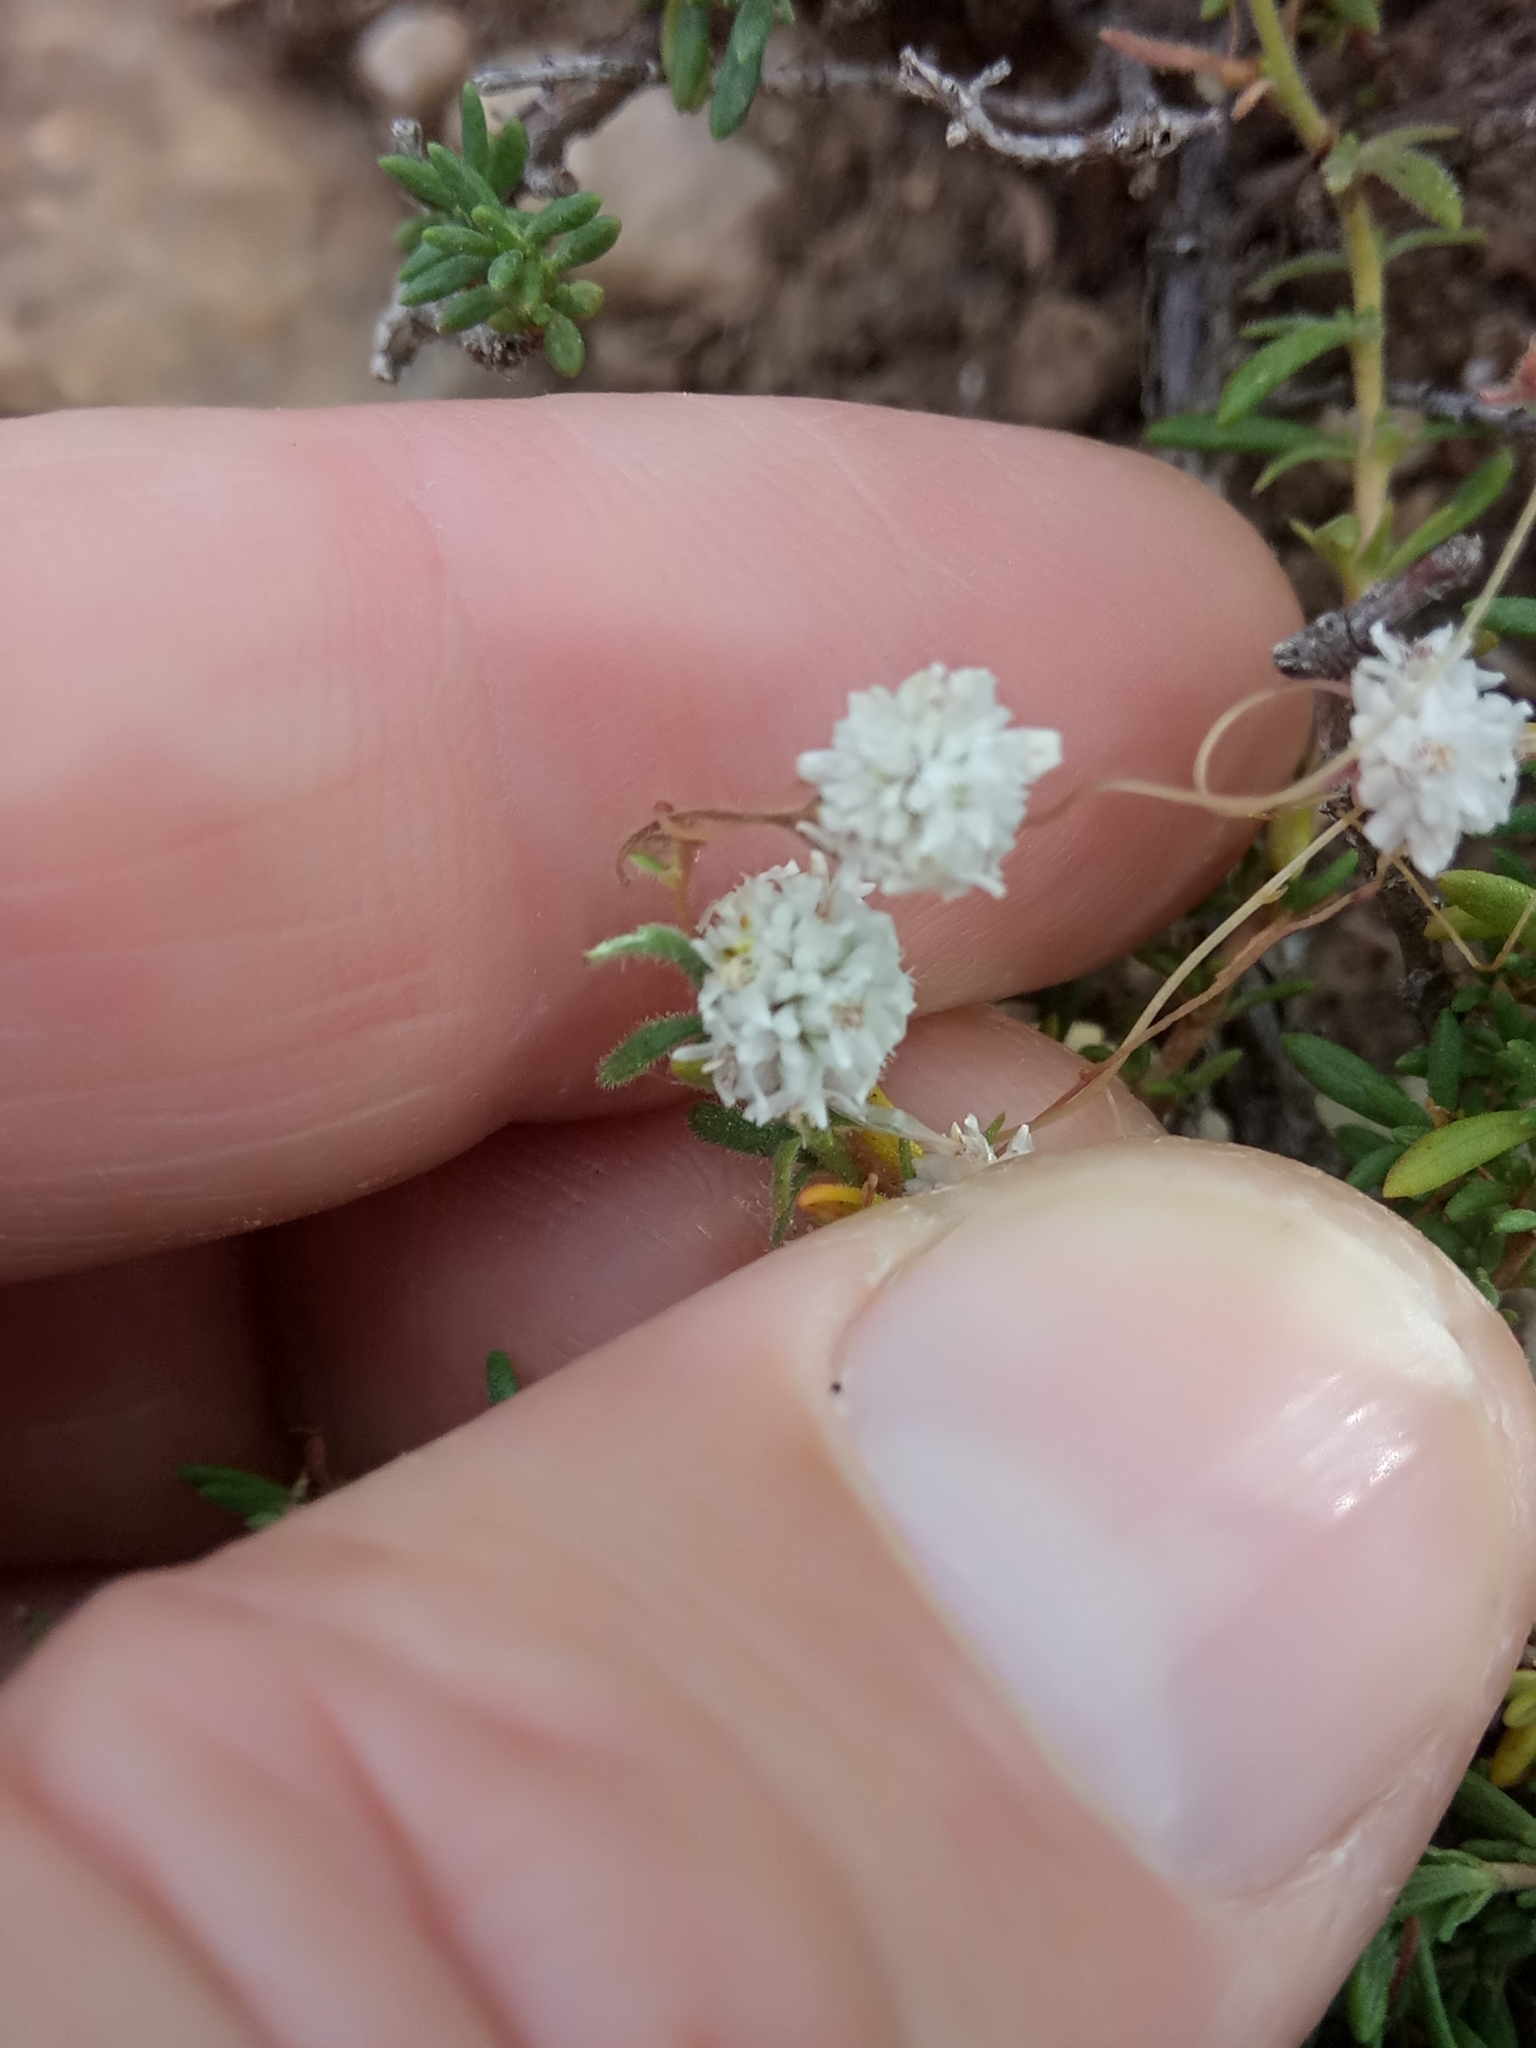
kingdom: Plantae
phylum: Tracheophyta
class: Magnoliopsida
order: Solanales
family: Convolvulaceae
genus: Cuscuta
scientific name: Cuscuta epithymum
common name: Clover dodder
